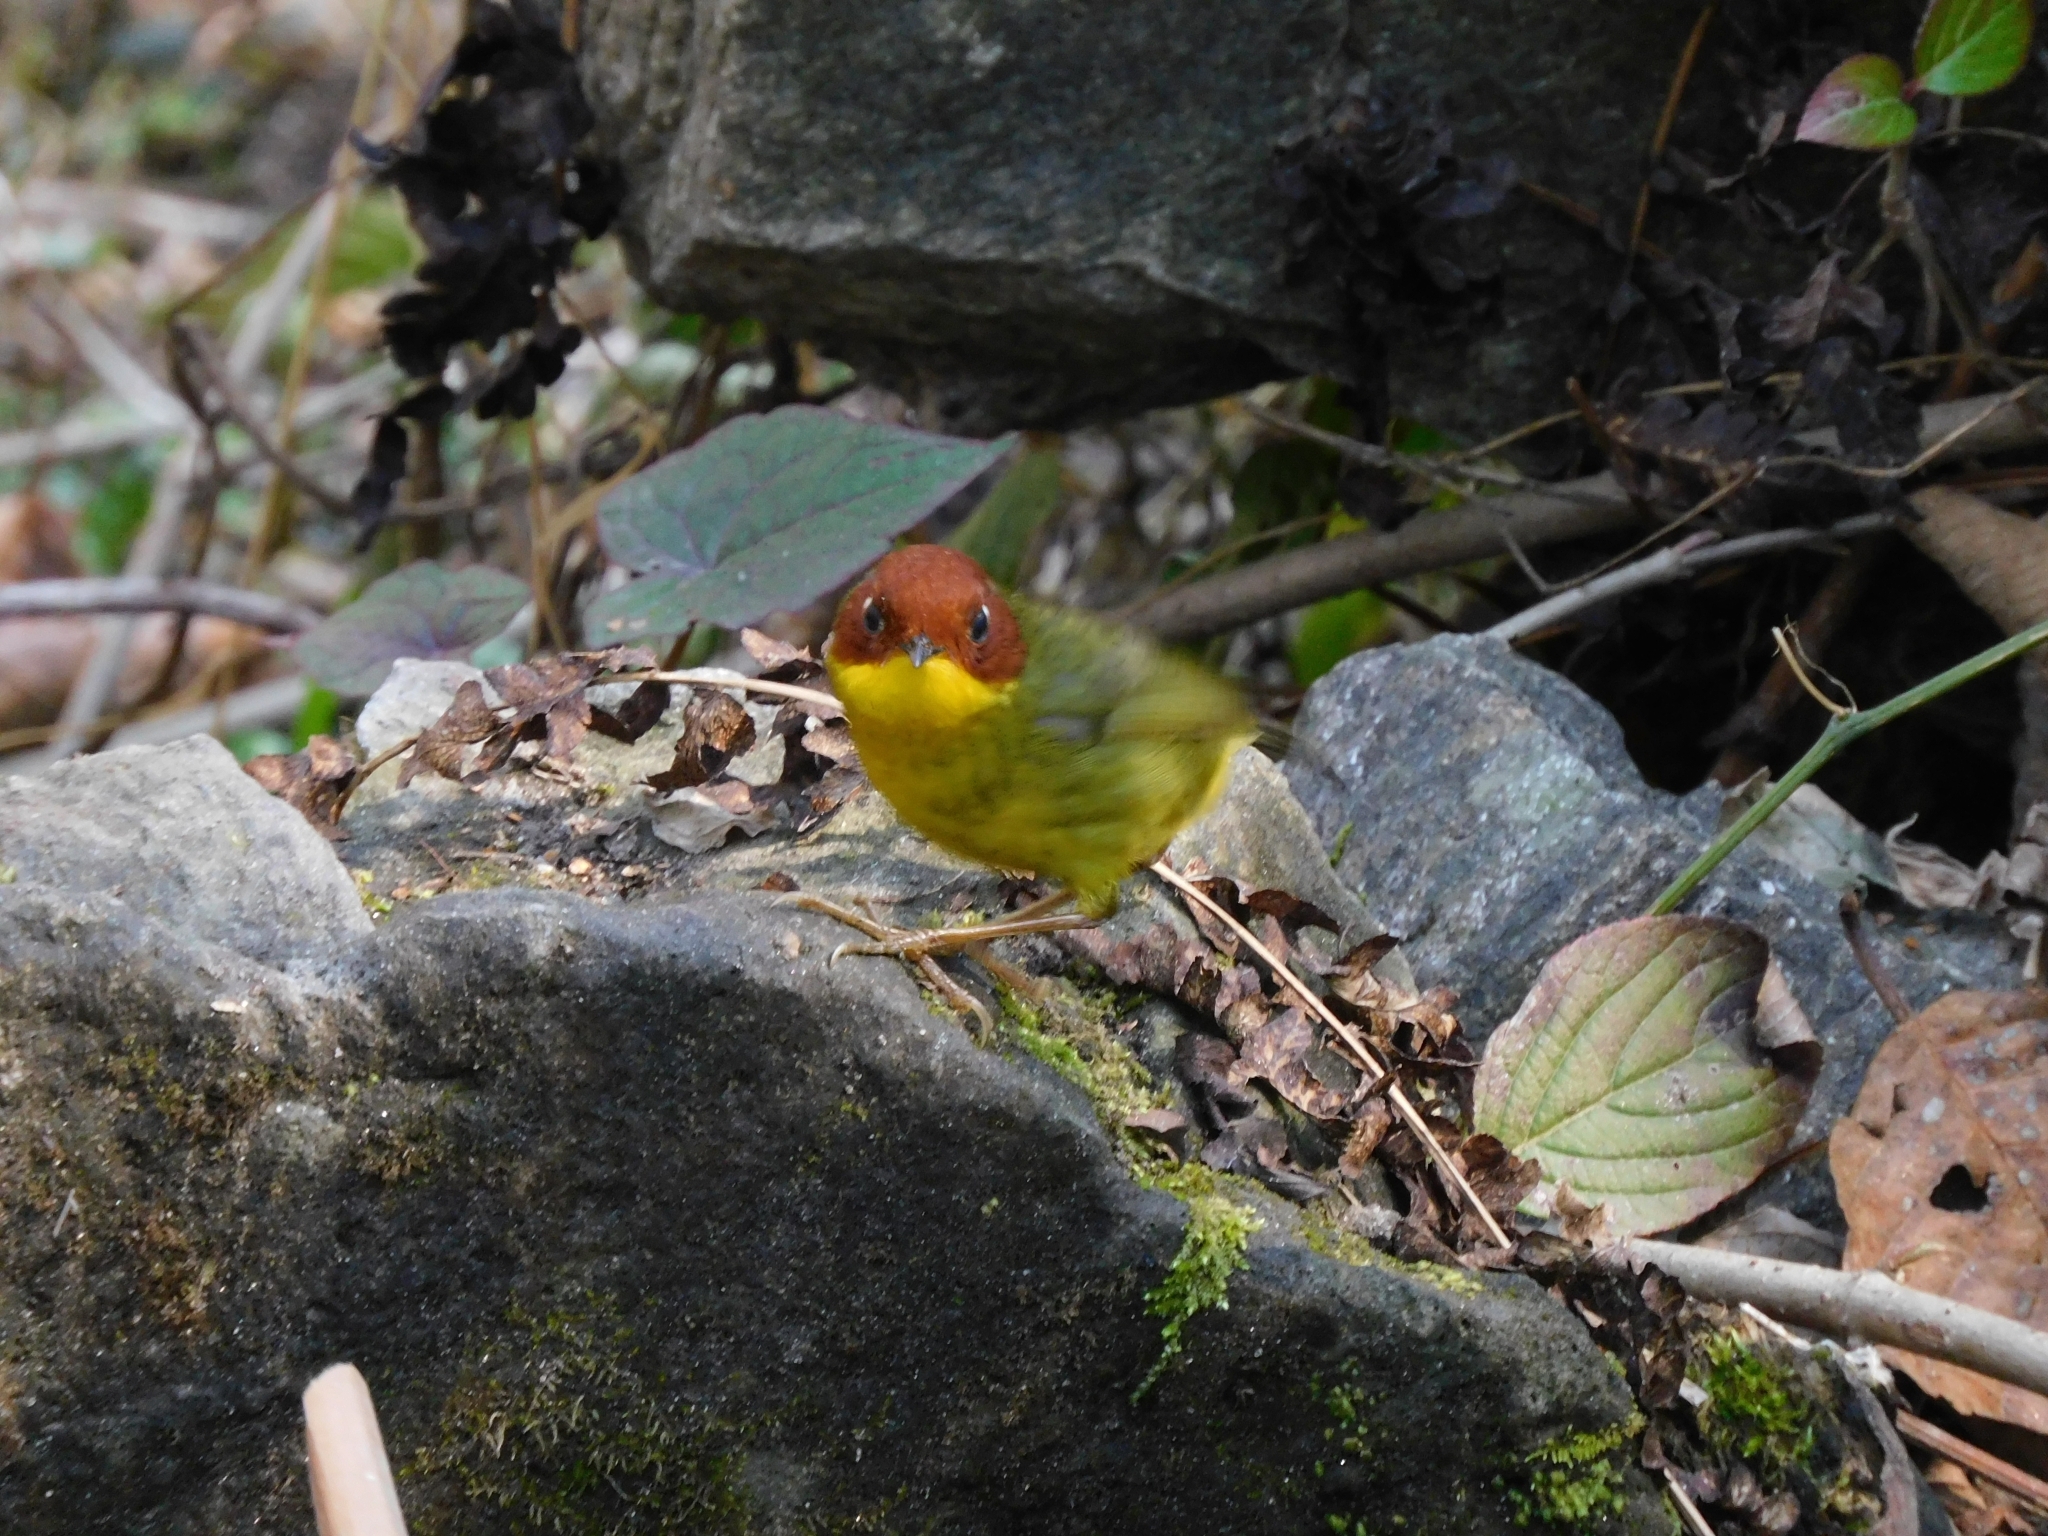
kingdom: Animalia
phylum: Chordata
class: Aves
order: Passeriformes
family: Cettiidae
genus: Cettia
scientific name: Cettia castaneocoronata
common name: Chestnut-headed tesia
